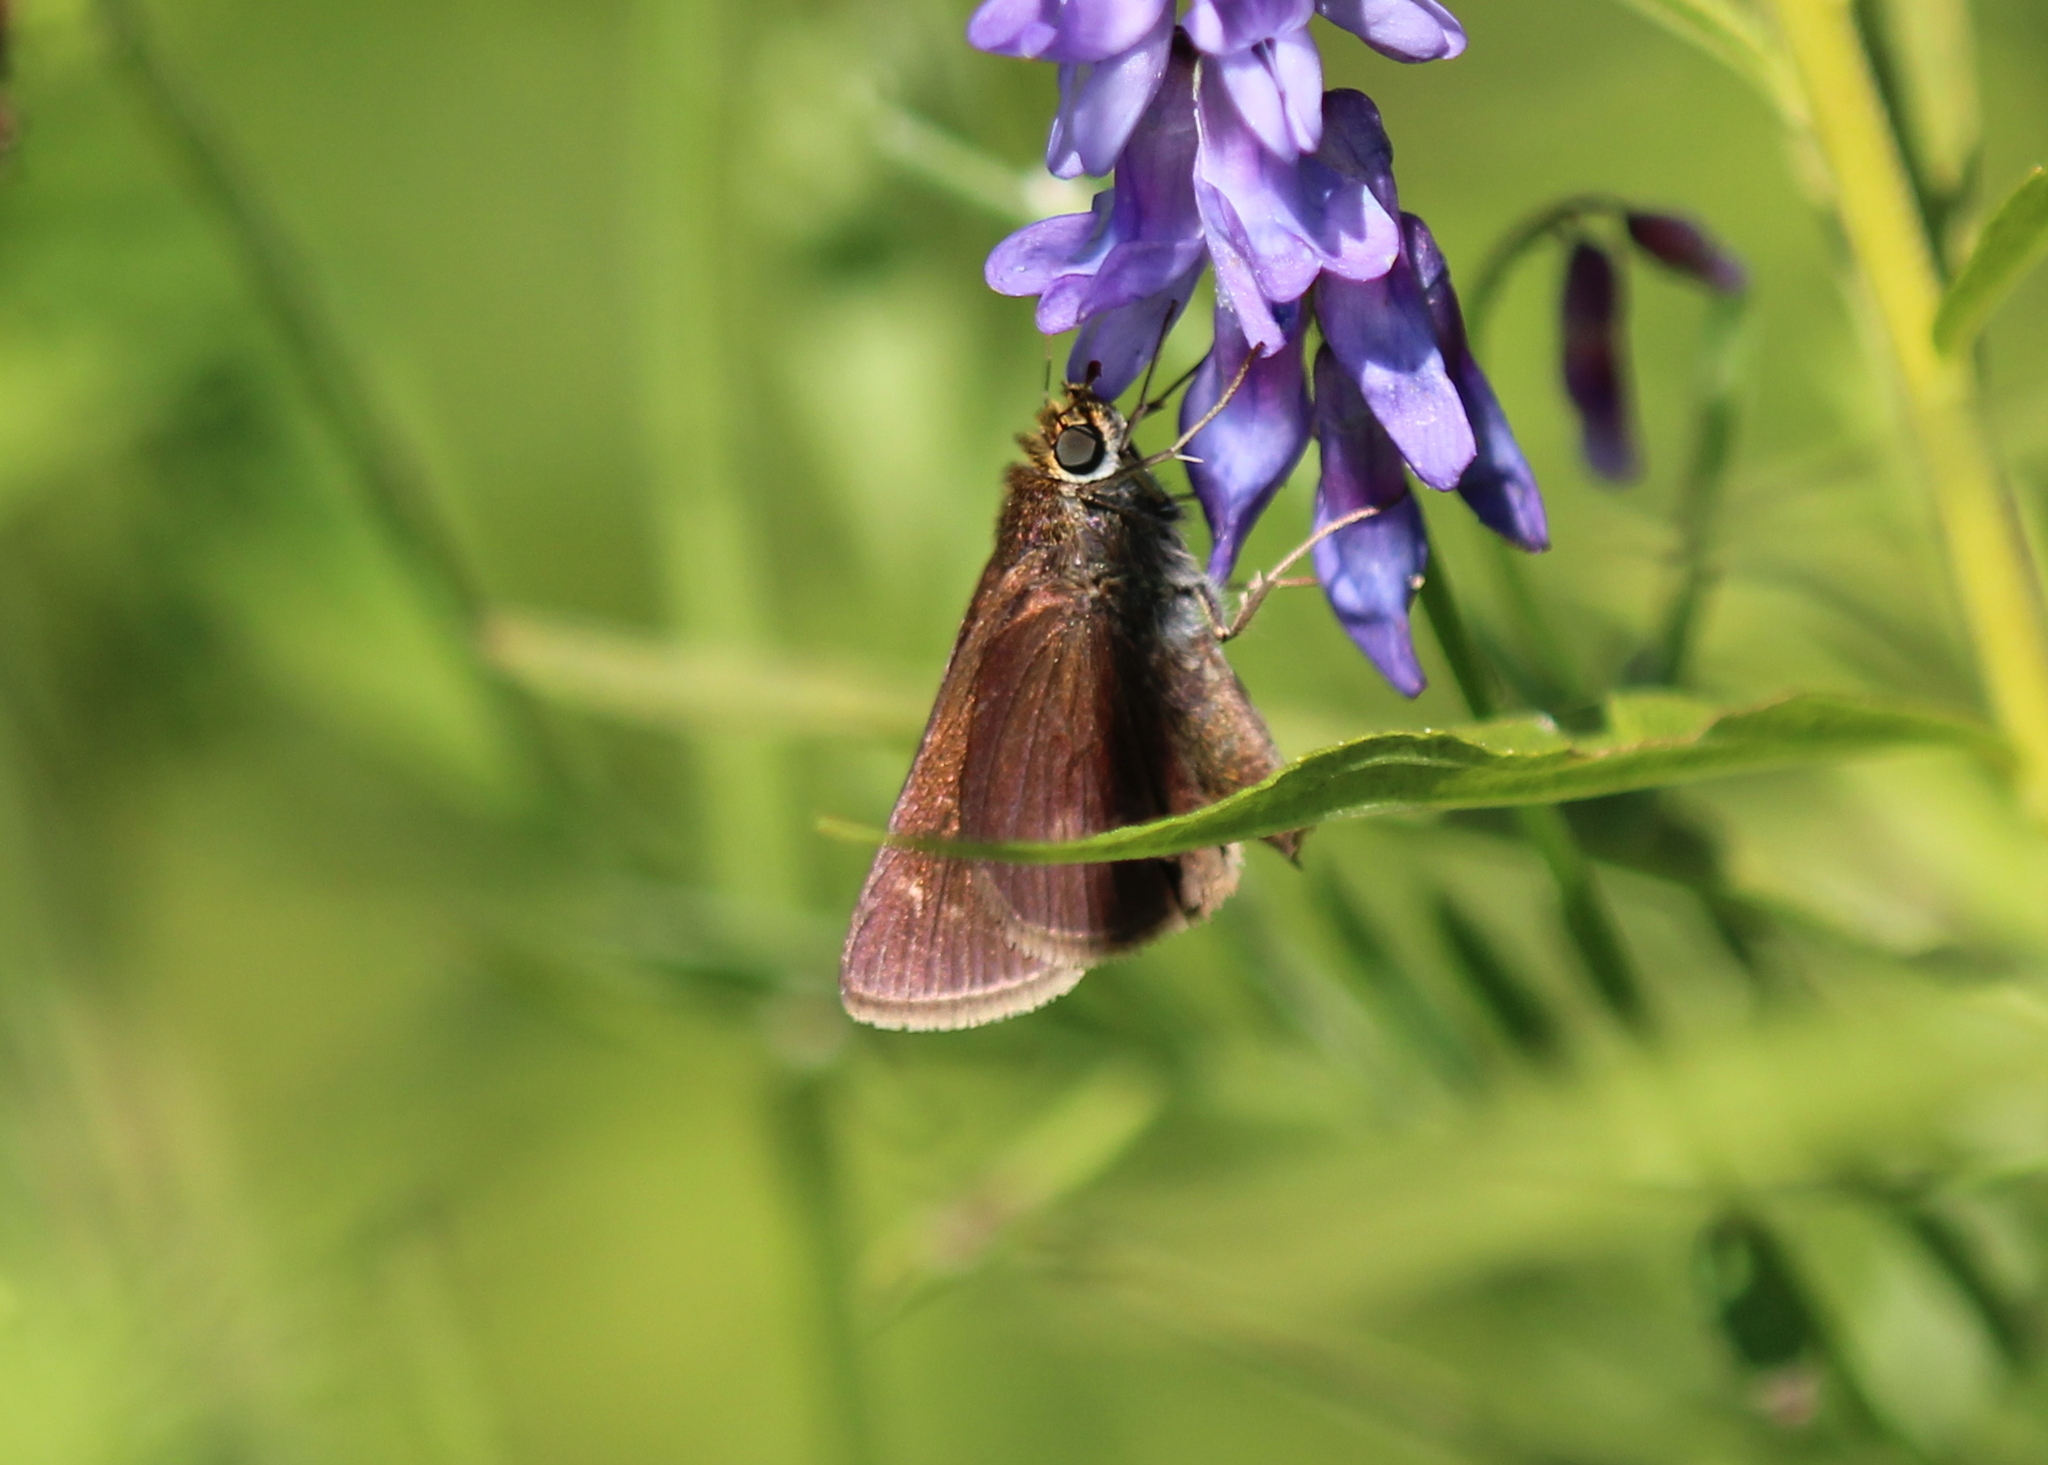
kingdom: Animalia
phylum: Arthropoda
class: Insecta
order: Lepidoptera
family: Hesperiidae
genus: Euphyes
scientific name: Euphyes vestris
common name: Dun skipper
